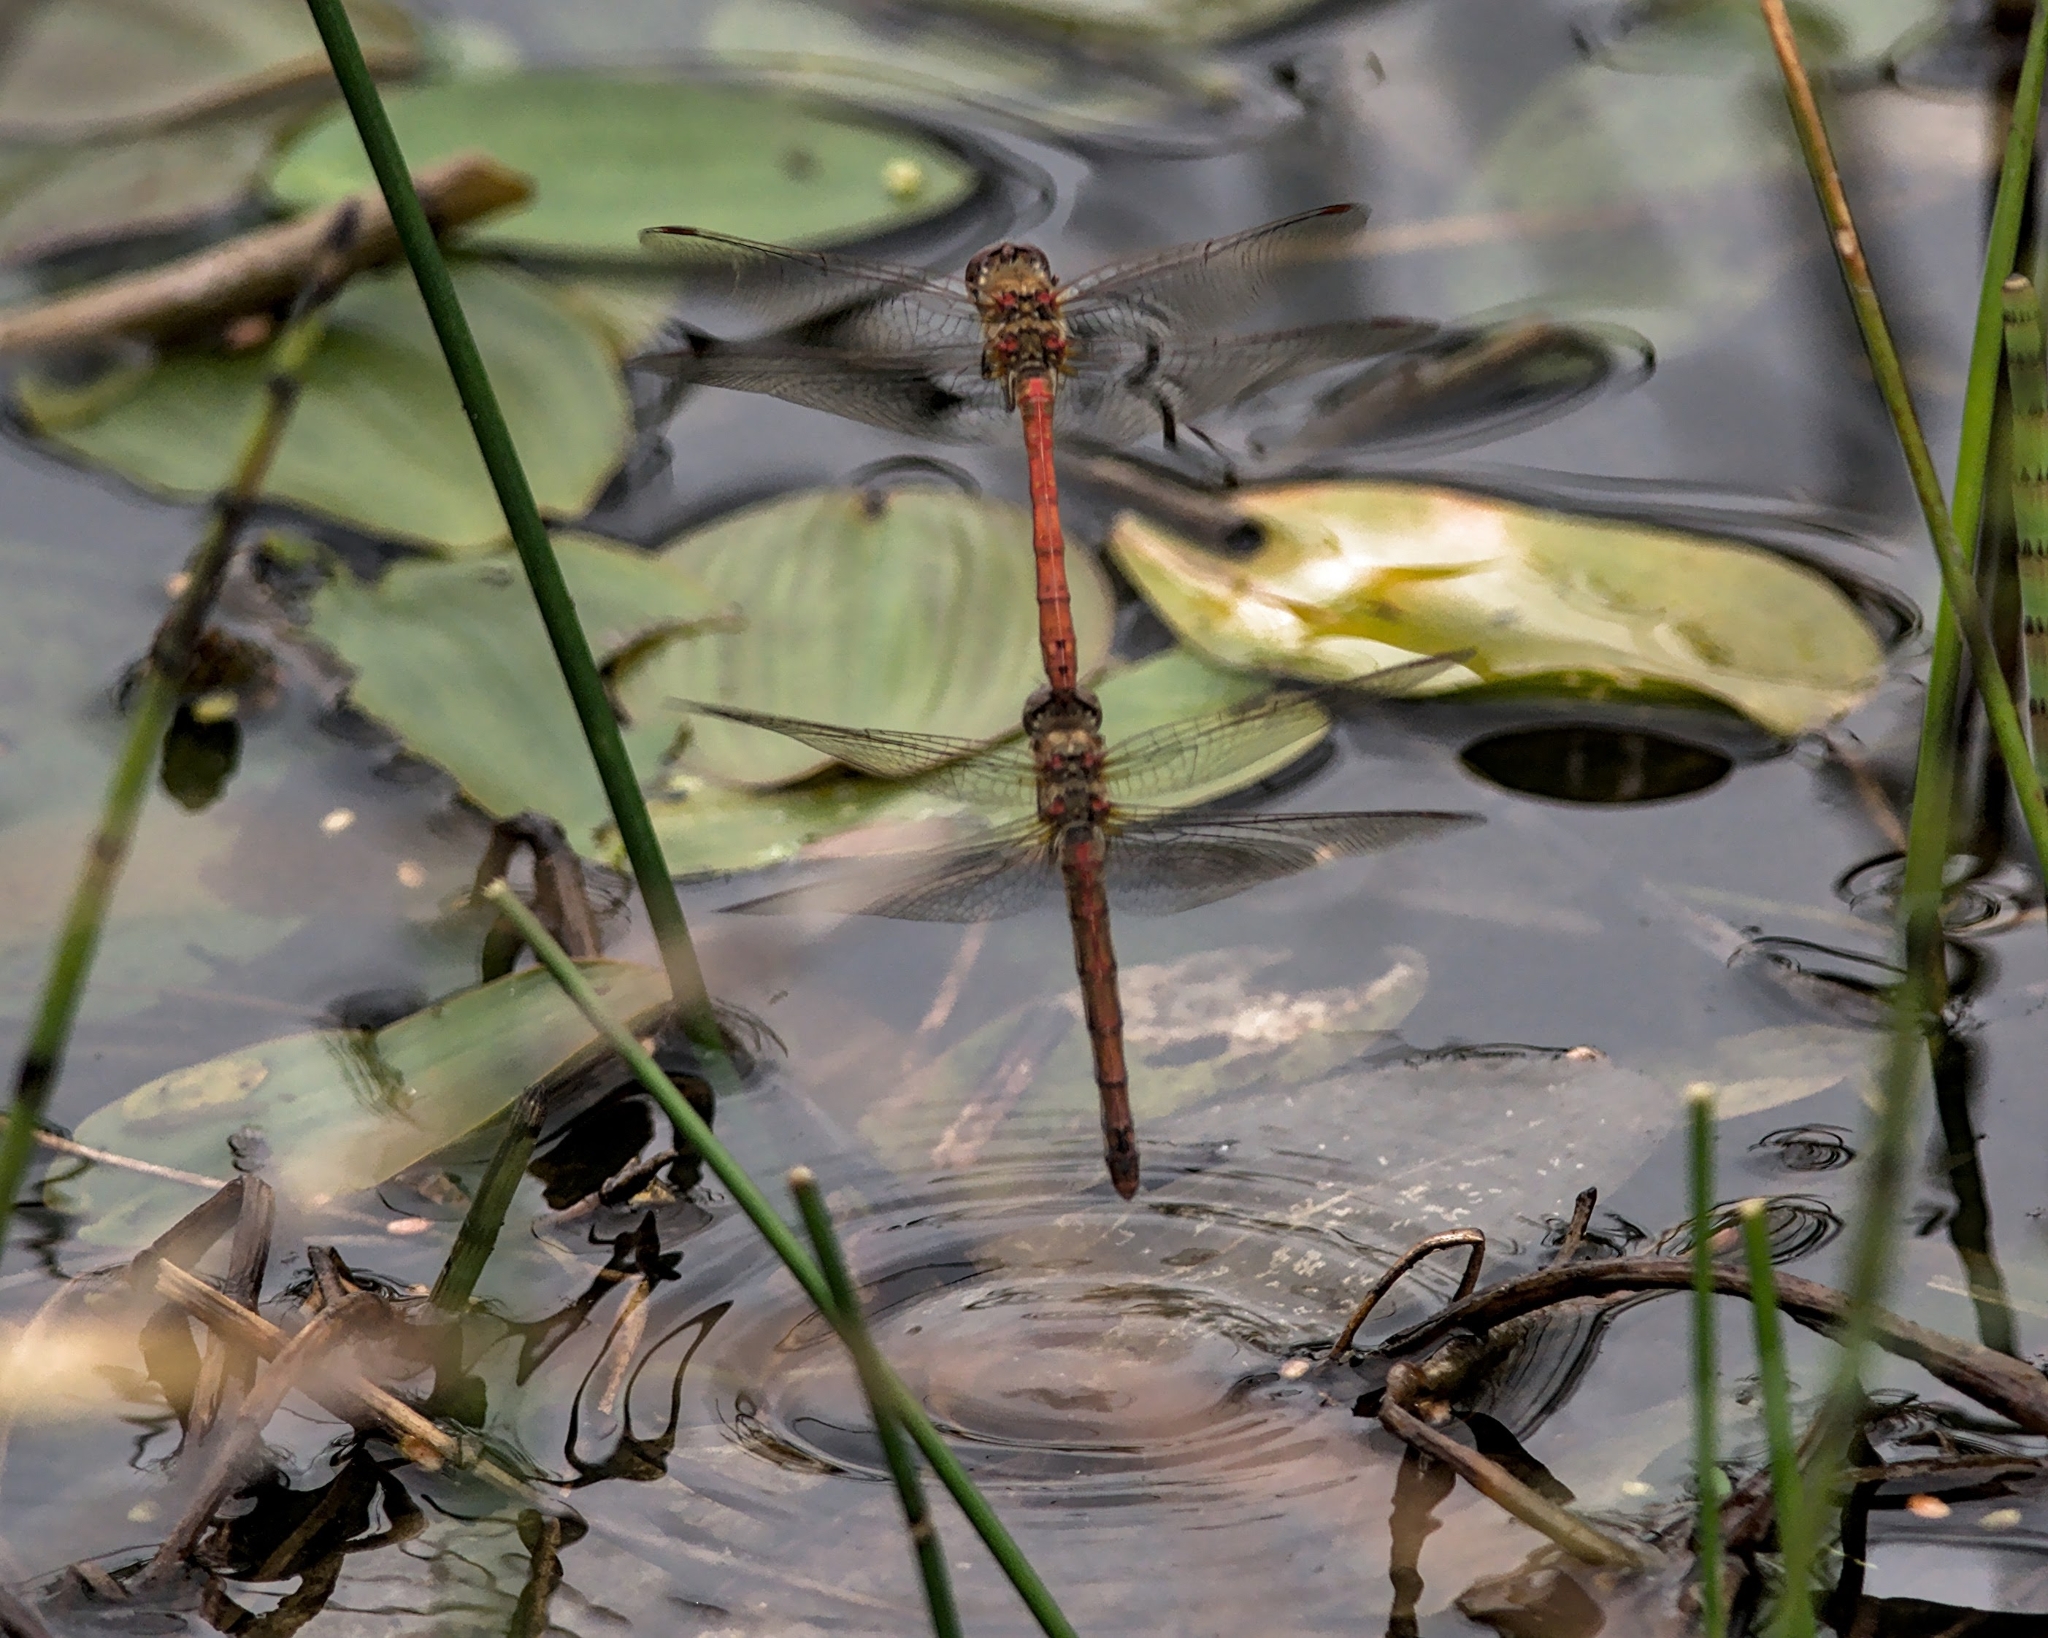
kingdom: Animalia
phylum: Arthropoda
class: Insecta
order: Odonata
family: Libellulidae
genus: Sympetrum
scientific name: Sympetrum striolatum
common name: Common darter
